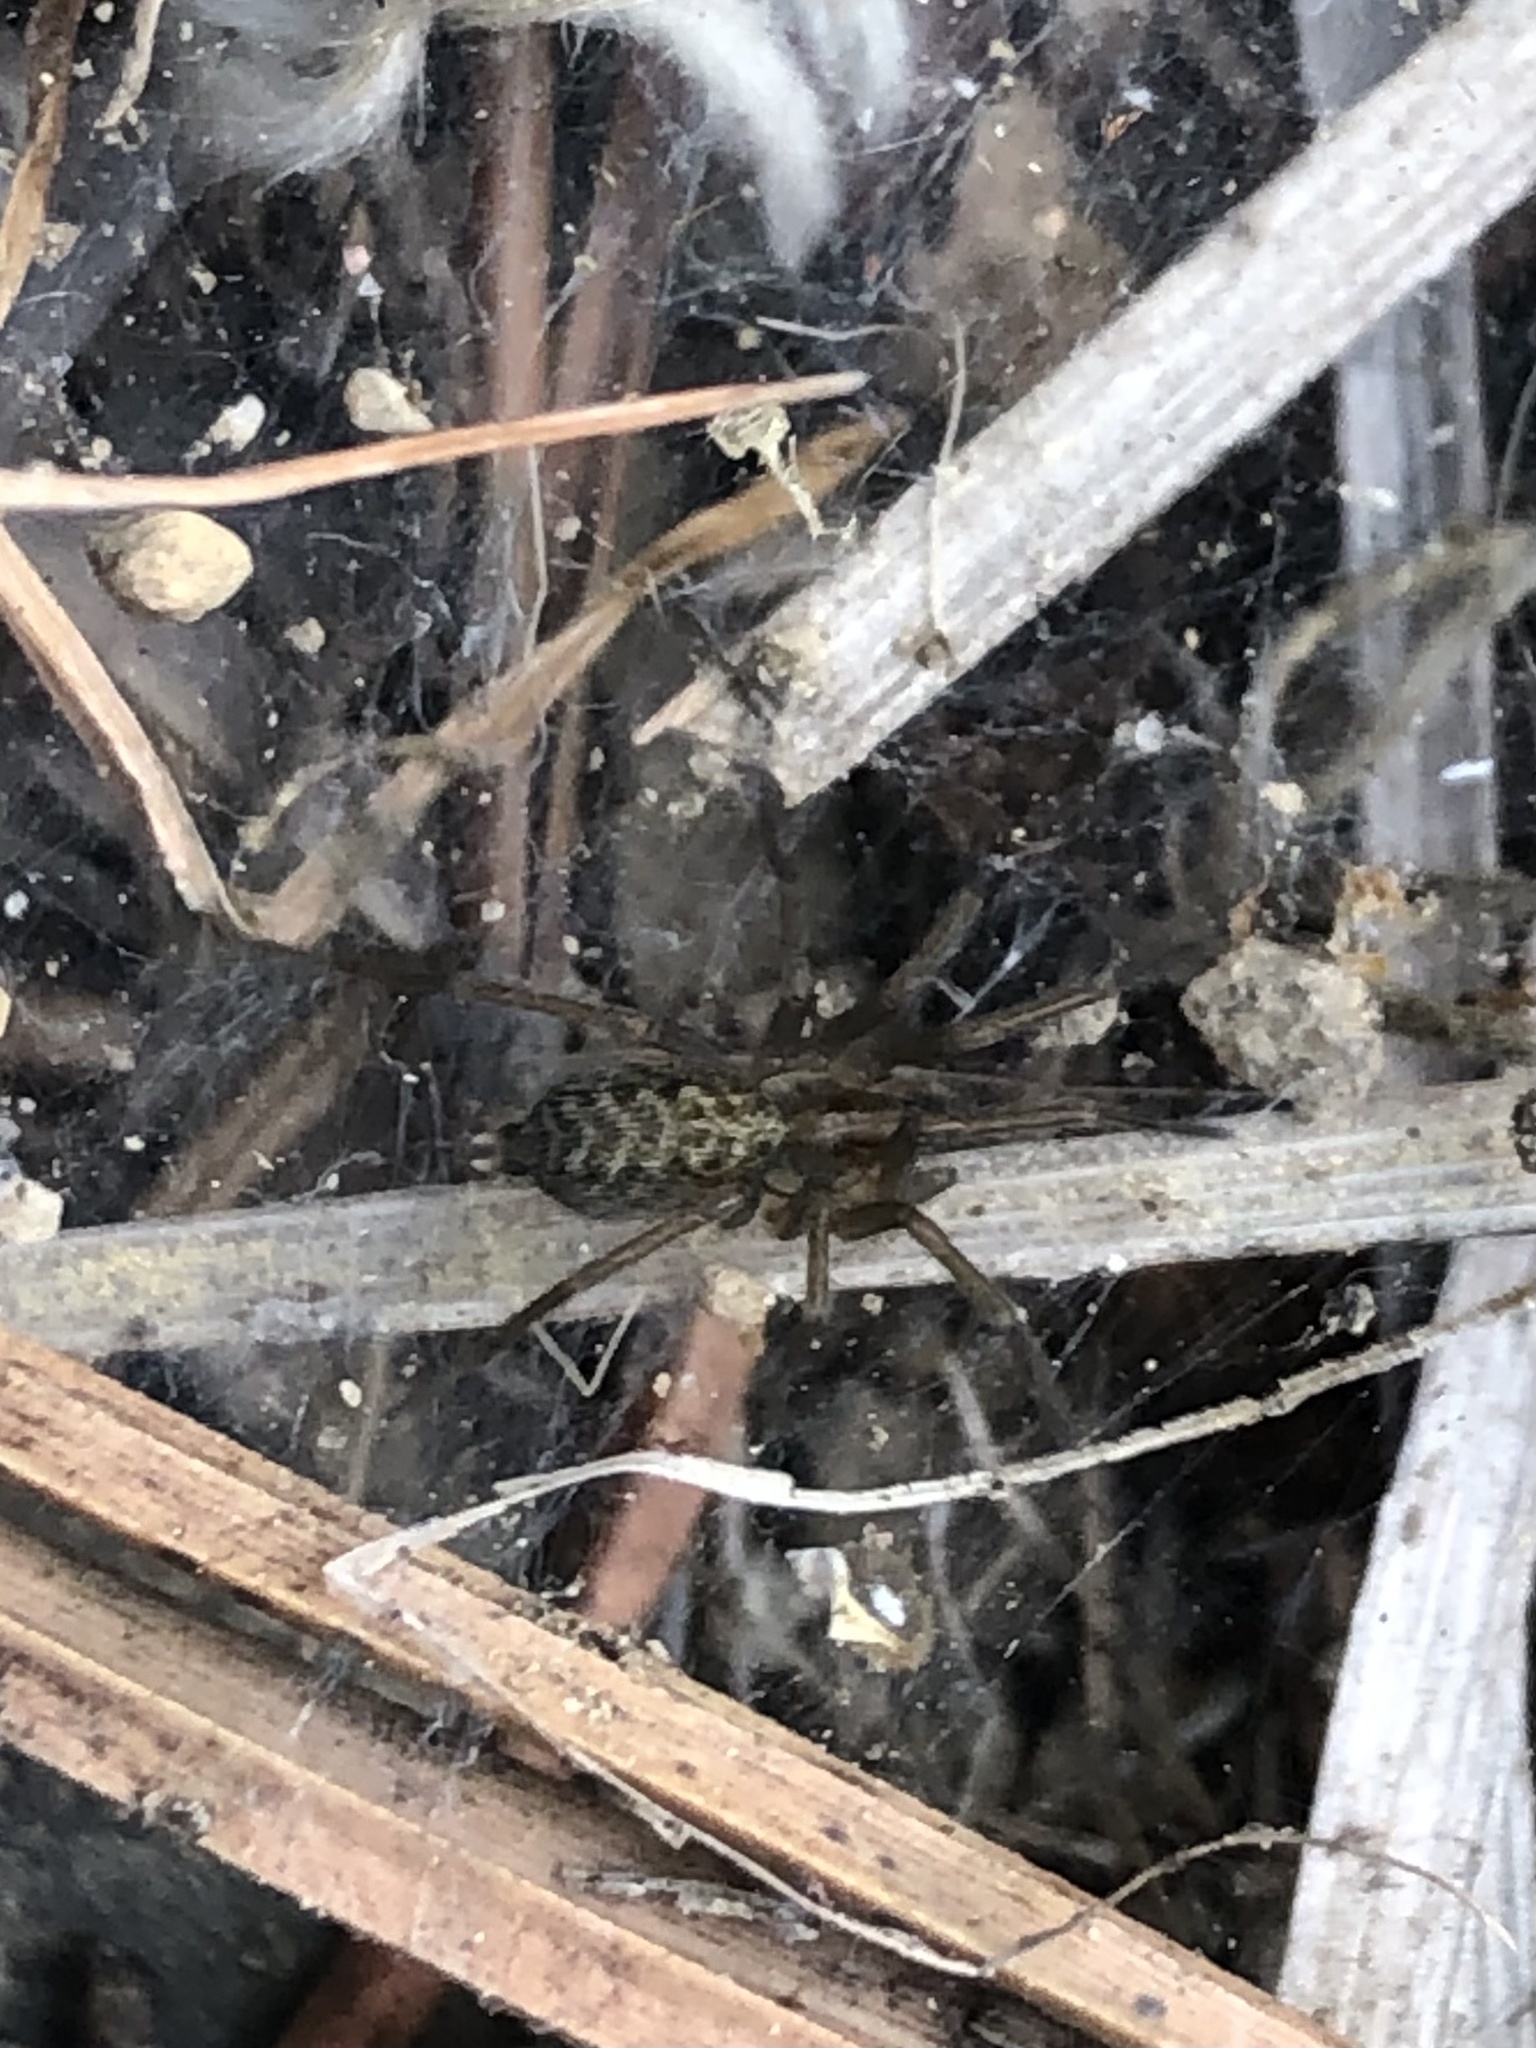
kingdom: Animalia
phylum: Arthropoda
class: Arachnida
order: Araneae
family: Agelenidae
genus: Eratigena
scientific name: Eratigena agrestis
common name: Hobo spider
